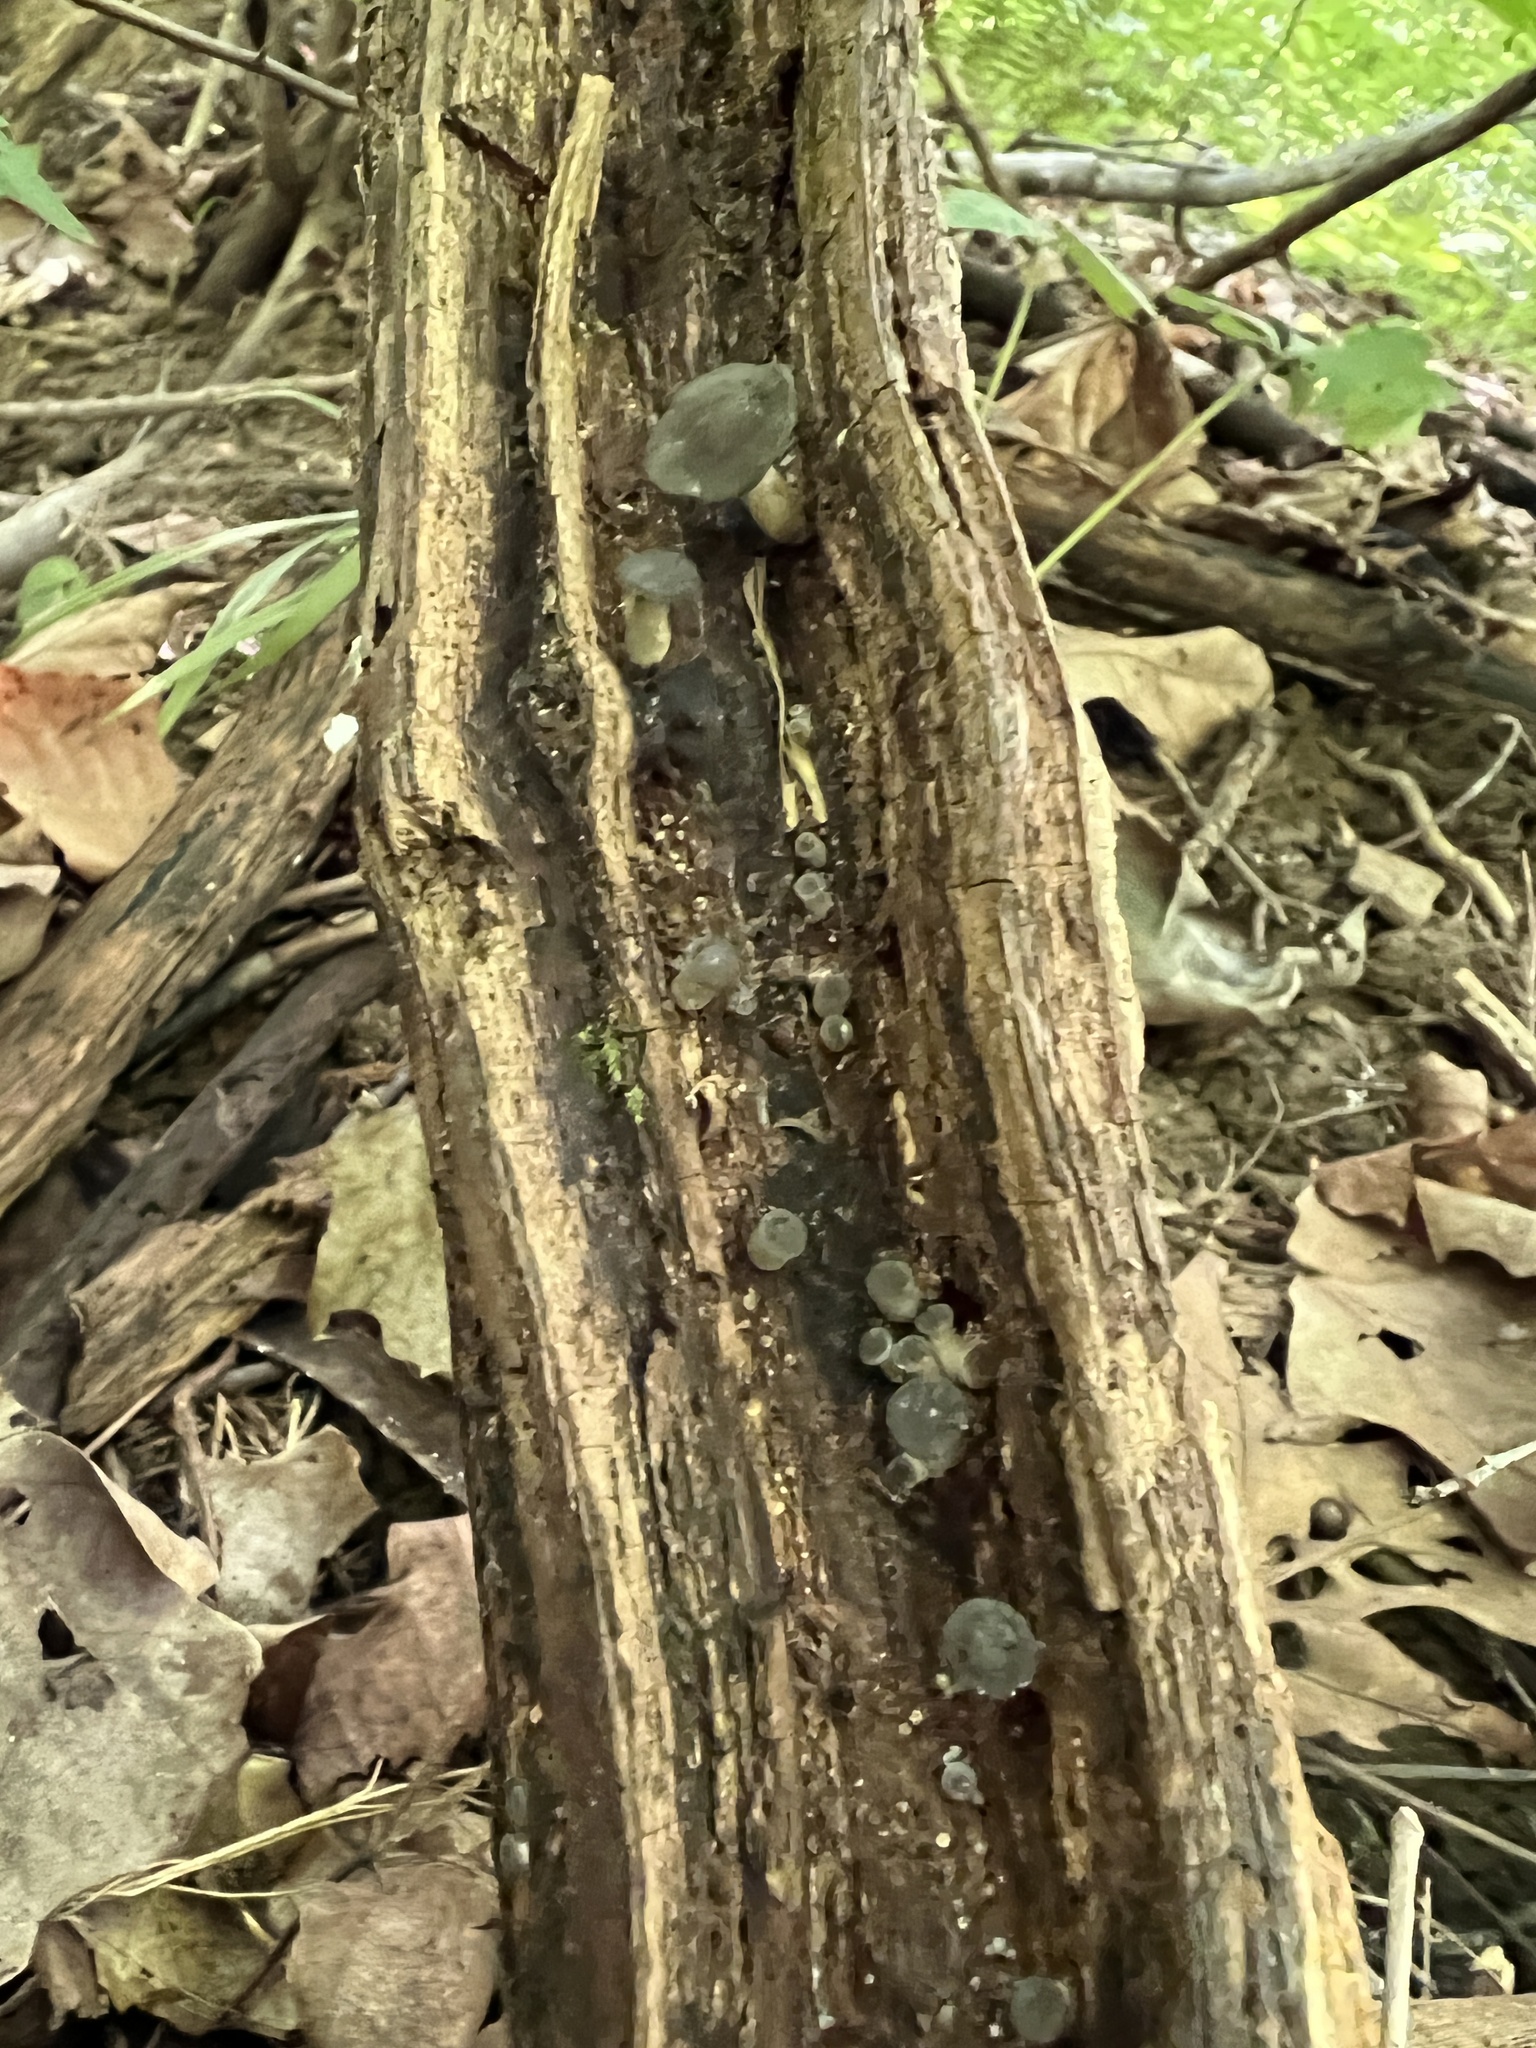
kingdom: Fungi
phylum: Basidiomycota
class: Agaricomycetes
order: Agaricales
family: Marasmiaceae
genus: Gerronema
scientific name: Gerronema strombodes
